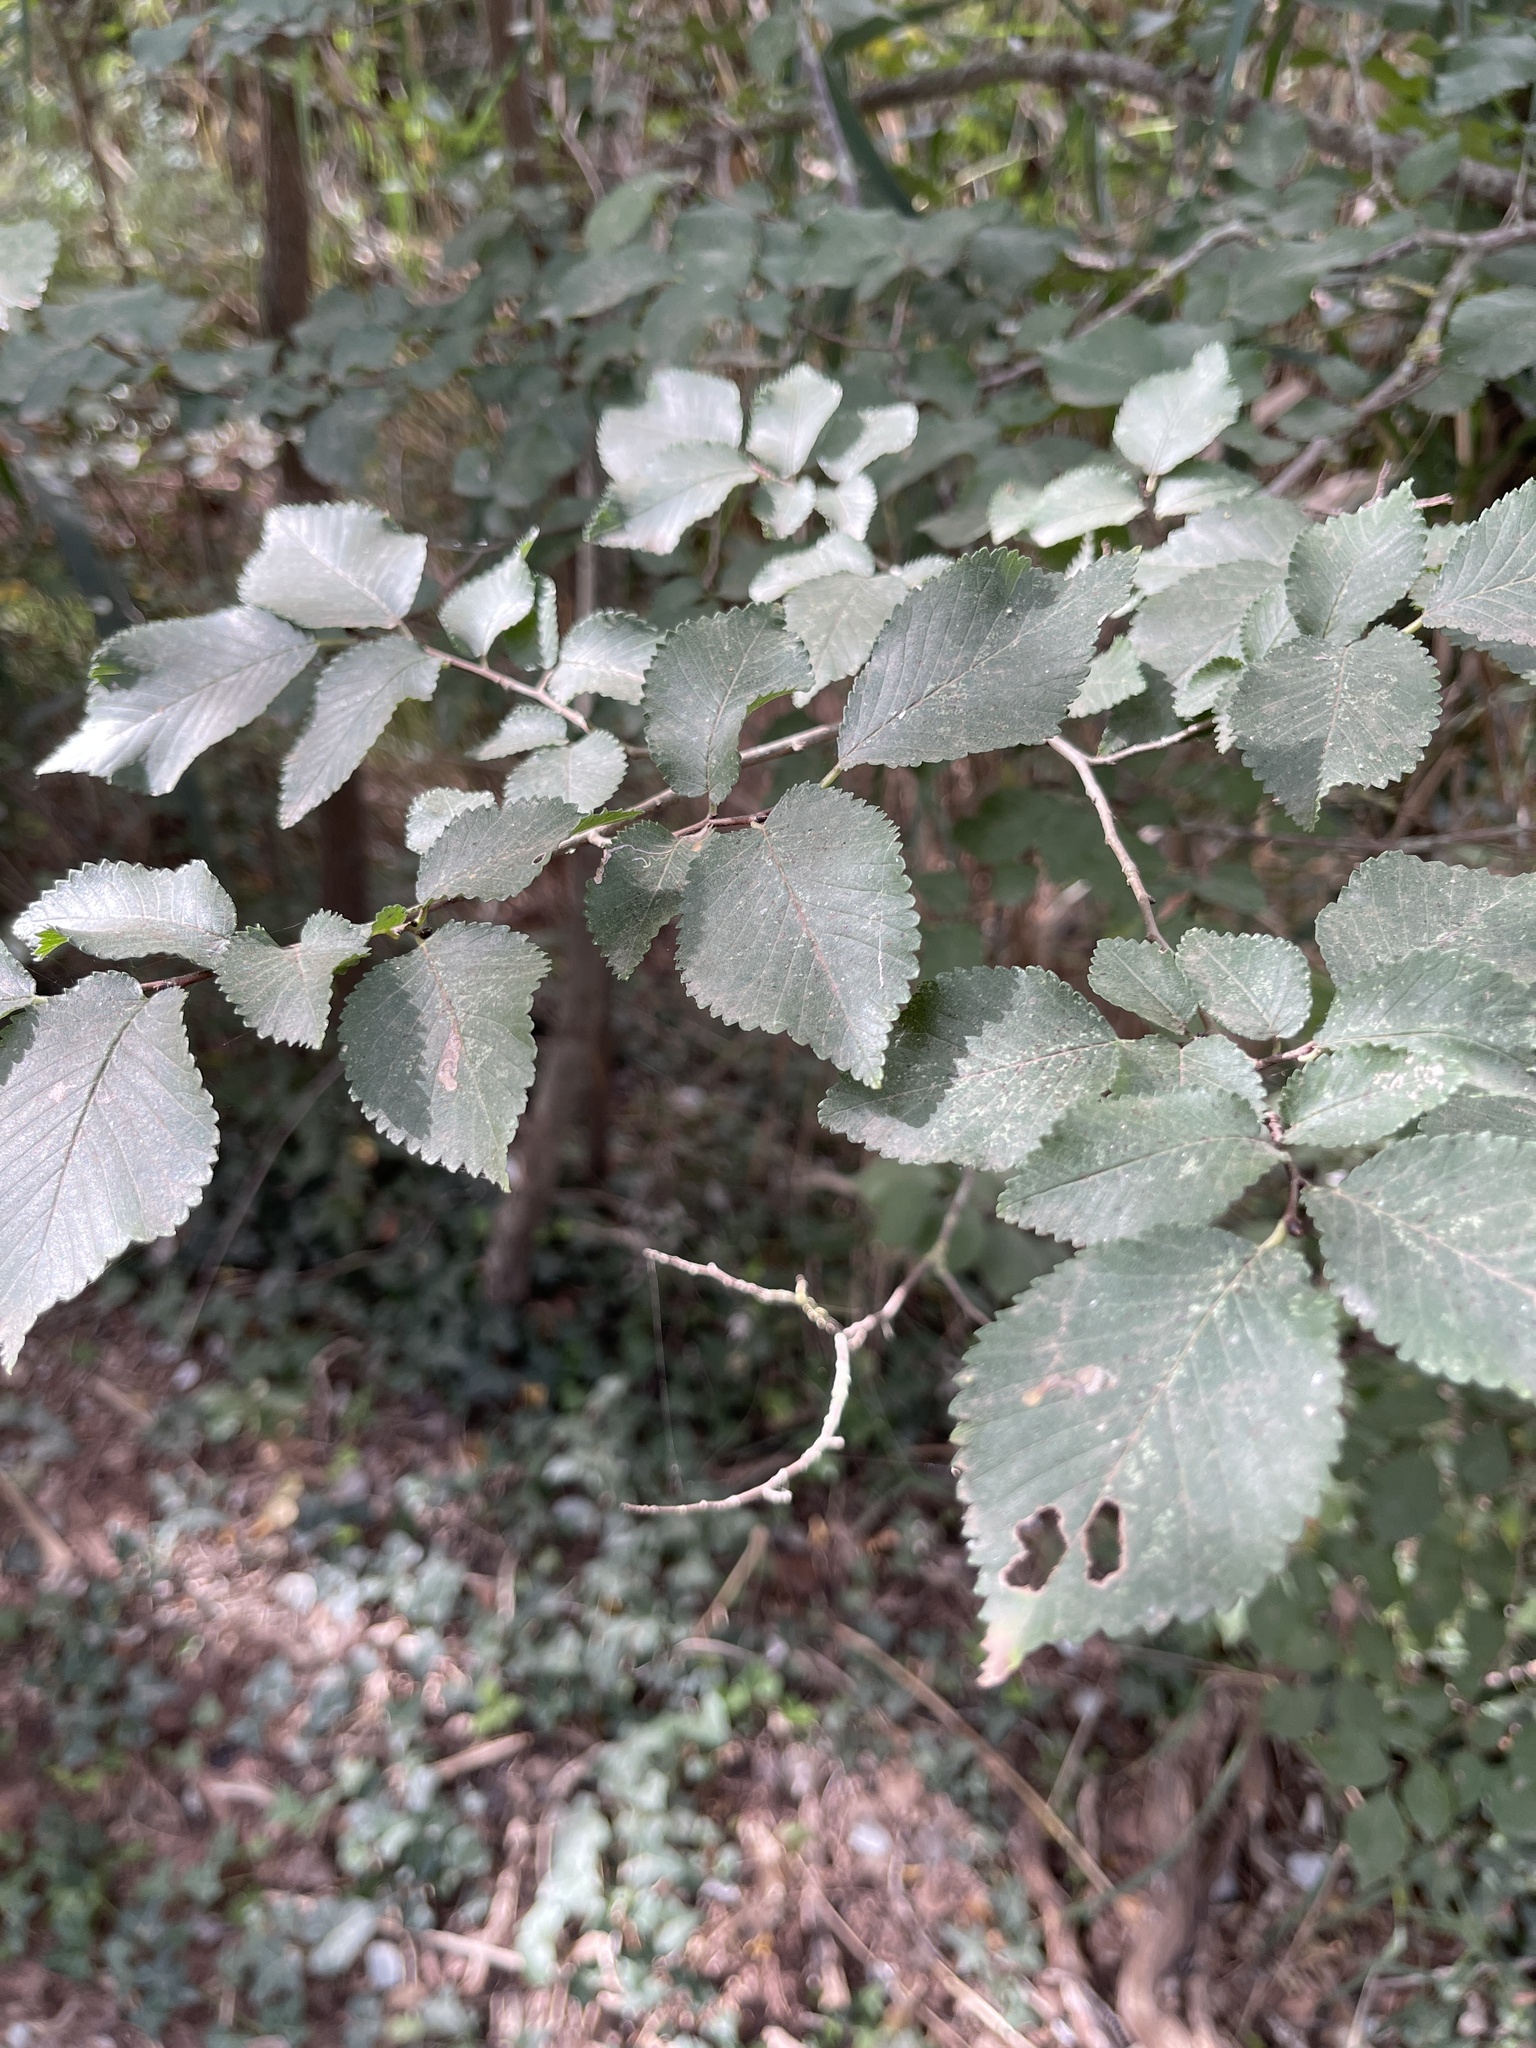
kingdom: Plantae
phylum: Tracheophyta
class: Magnoliopsida
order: Rosales
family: Ulmaceae
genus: Ulmus
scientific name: Ulmus minor
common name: Small-leaved elm
